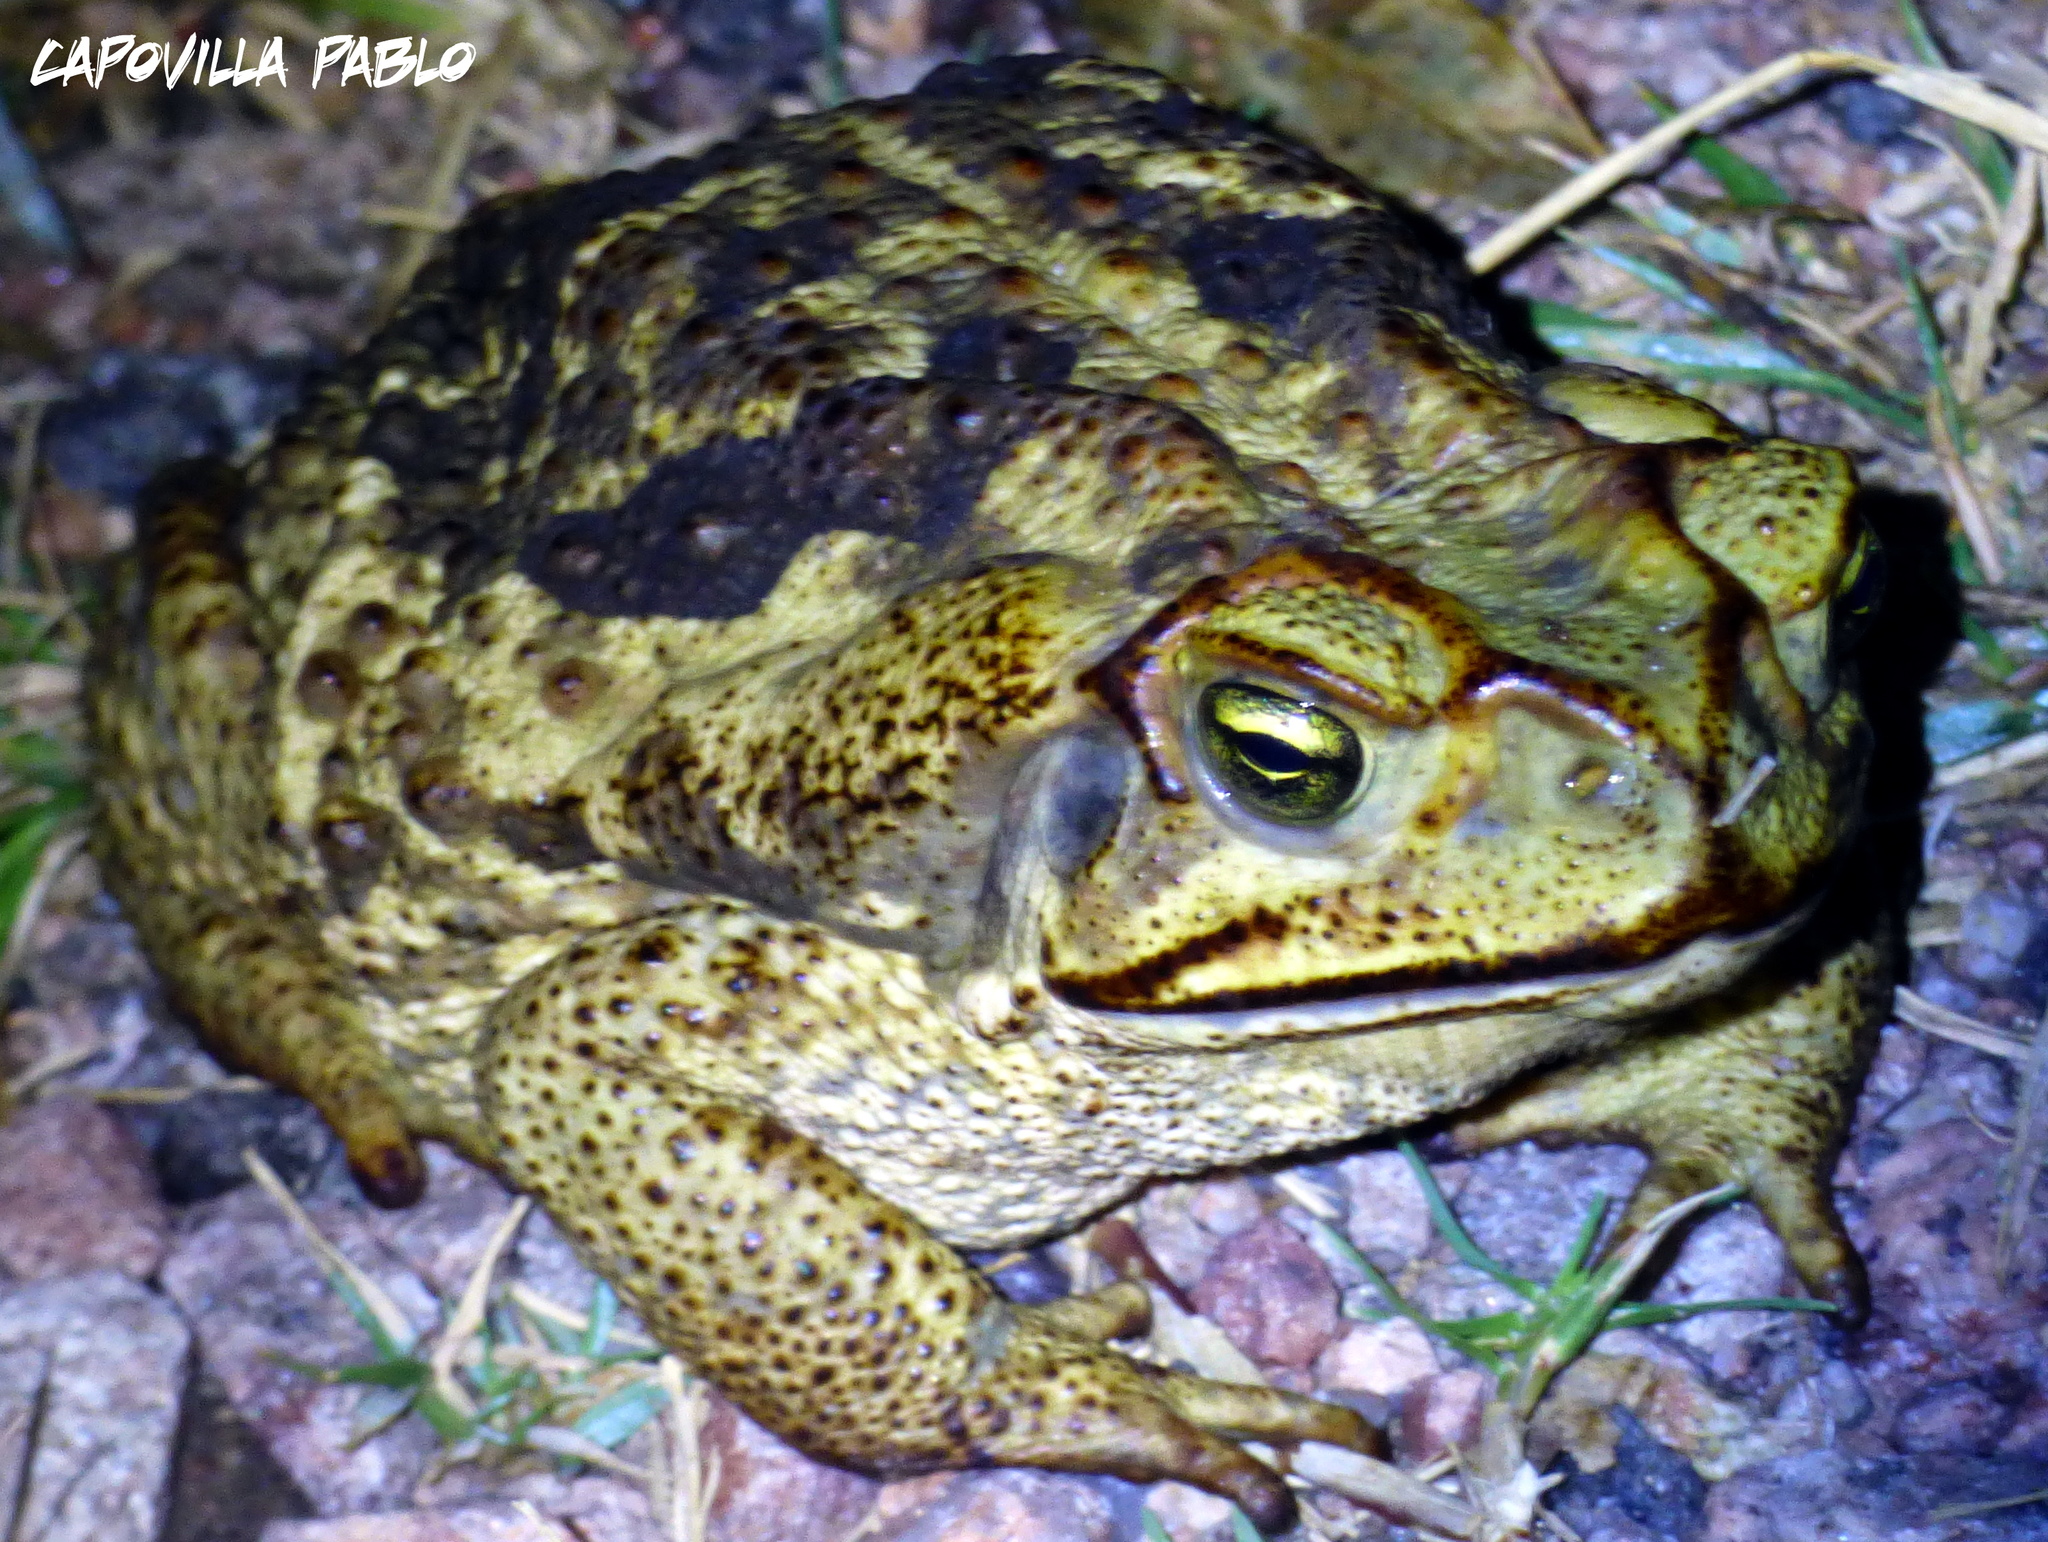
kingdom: Animalia
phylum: Chordata
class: Amphibia
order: Anura
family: Bufonidae
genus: Rhinella
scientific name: Rhinella diptycha
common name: Cope's toad
